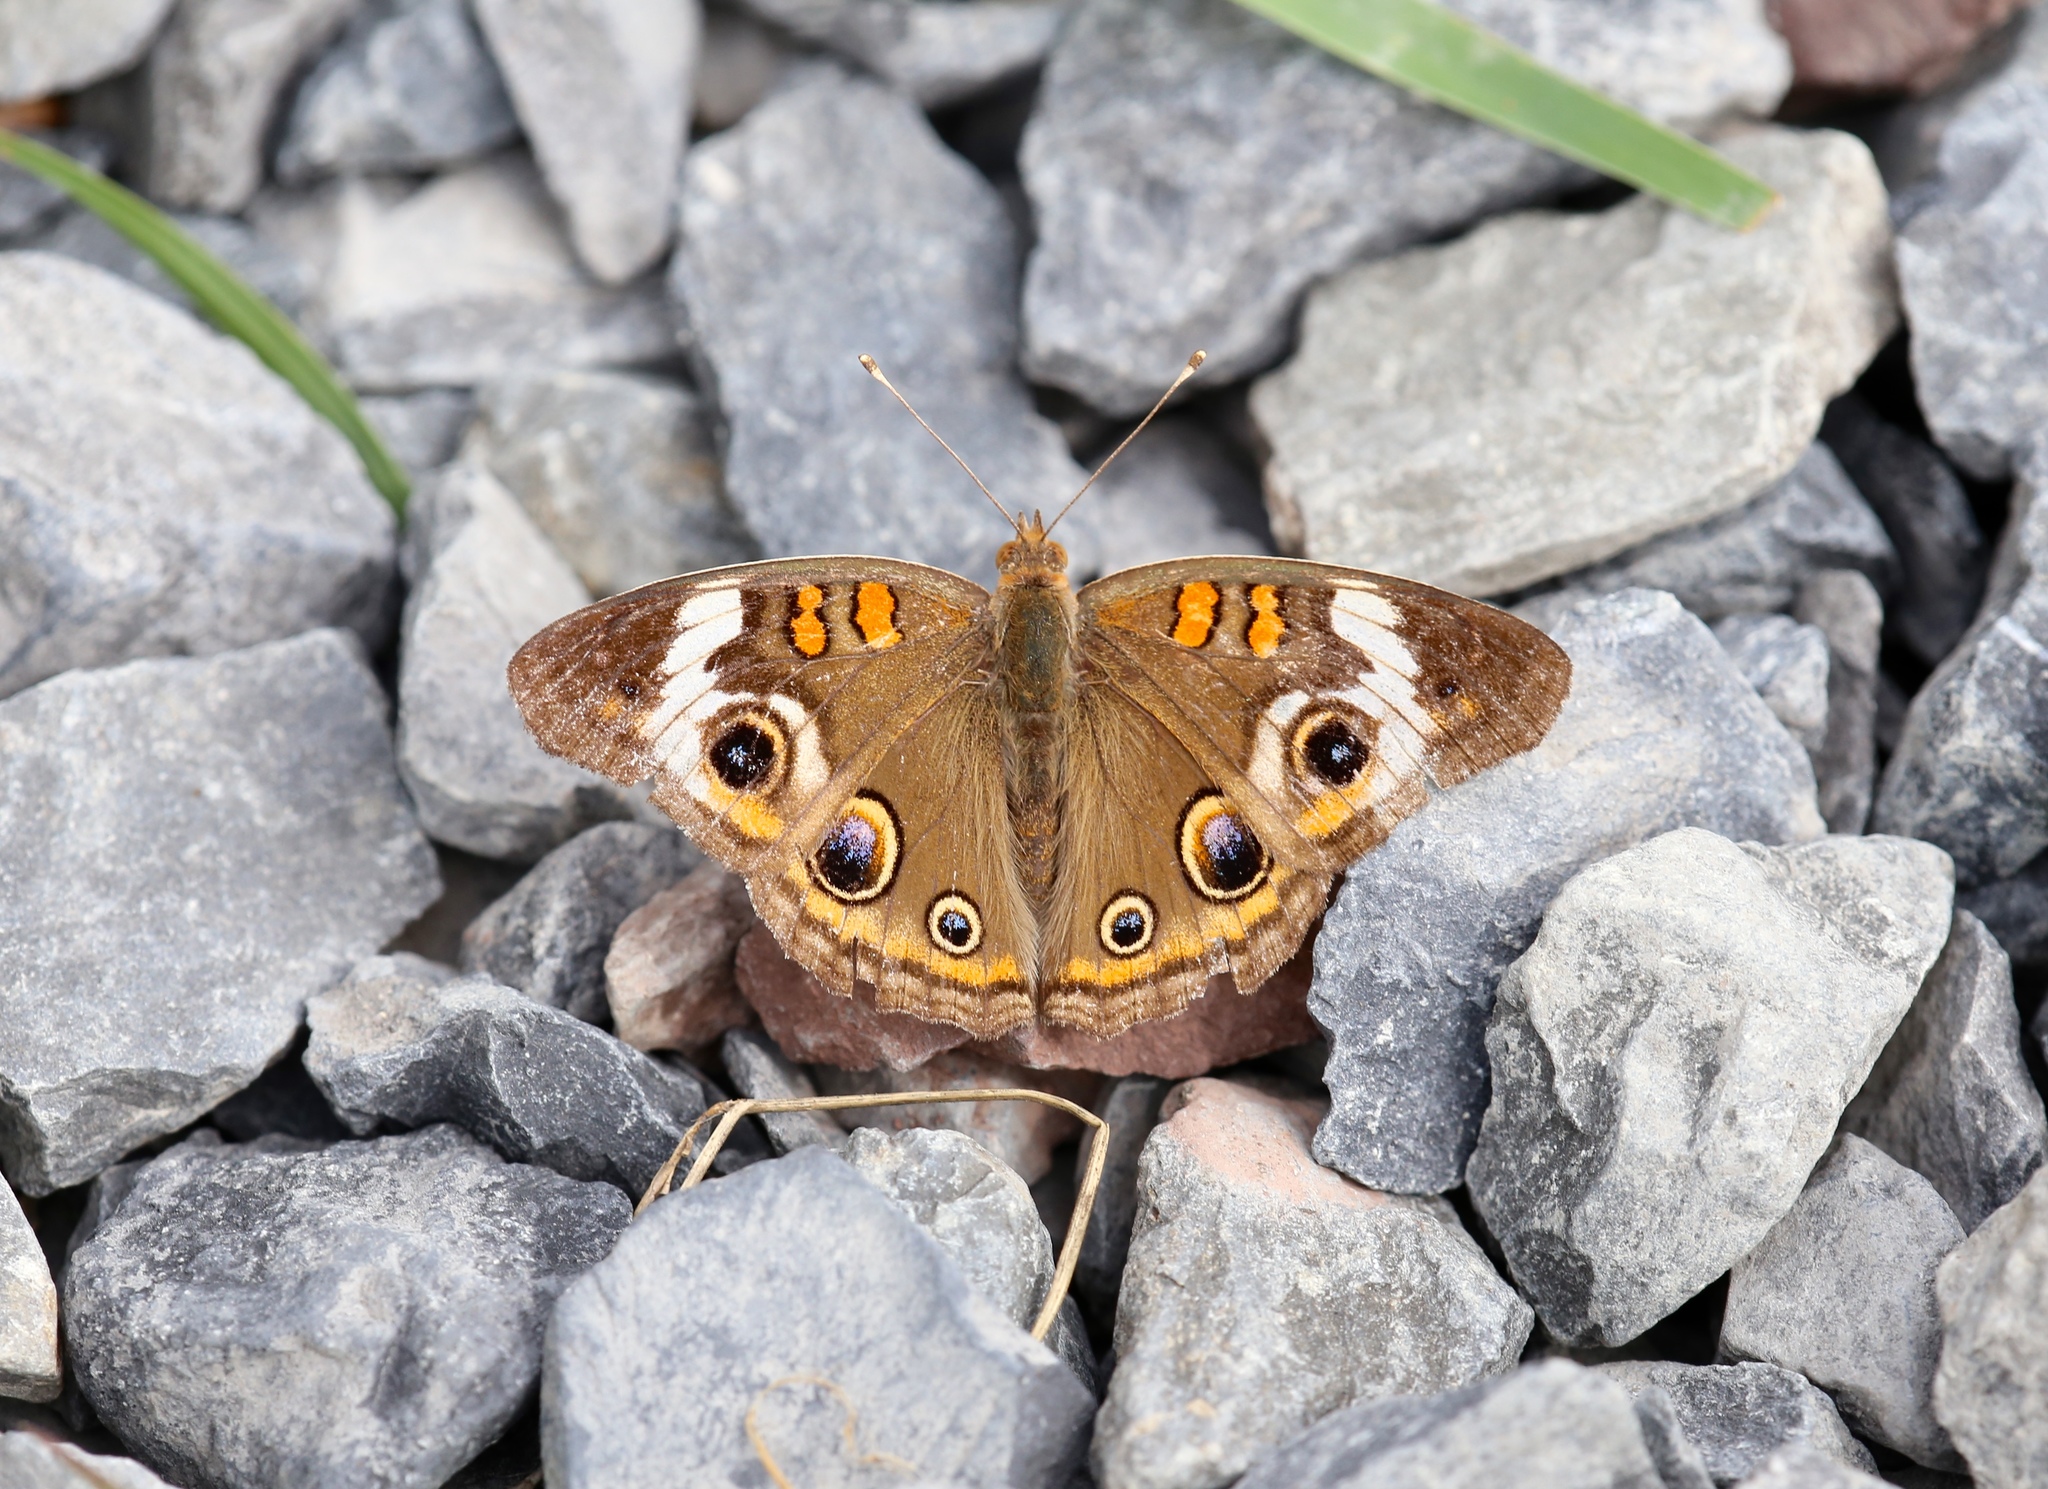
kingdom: Animalia
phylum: Arthropoda
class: Insecta
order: Lepidoptera
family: Nymphalidae
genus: Junonia
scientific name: Junonia coenia
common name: Common buckeye
